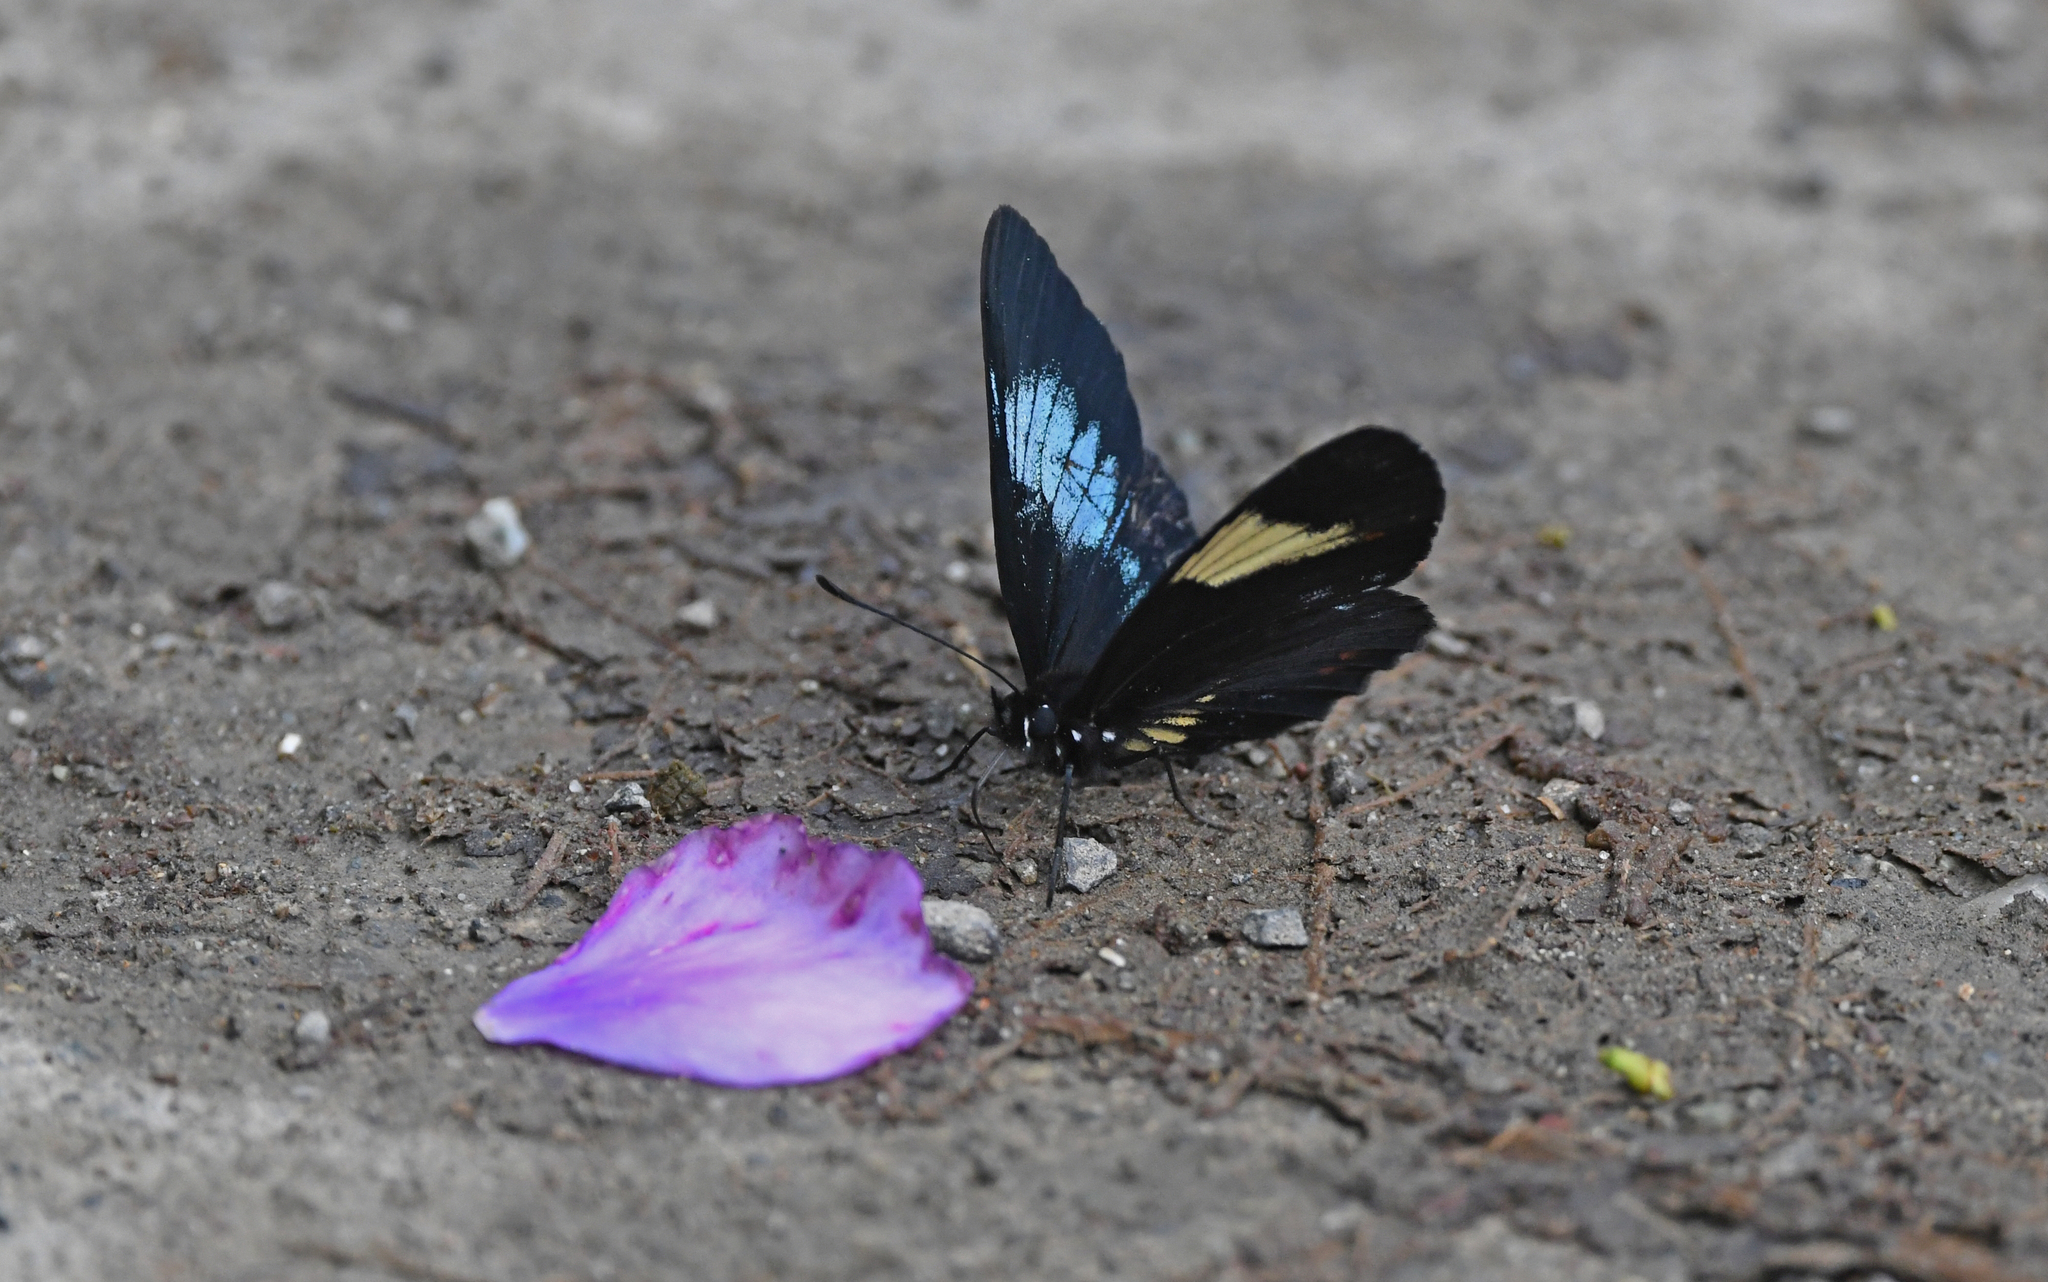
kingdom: Animalia
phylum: Arthropoda
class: Insecta
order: Lepidoptera
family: Nymphalidae
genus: Eresia
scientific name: Eresia levina
